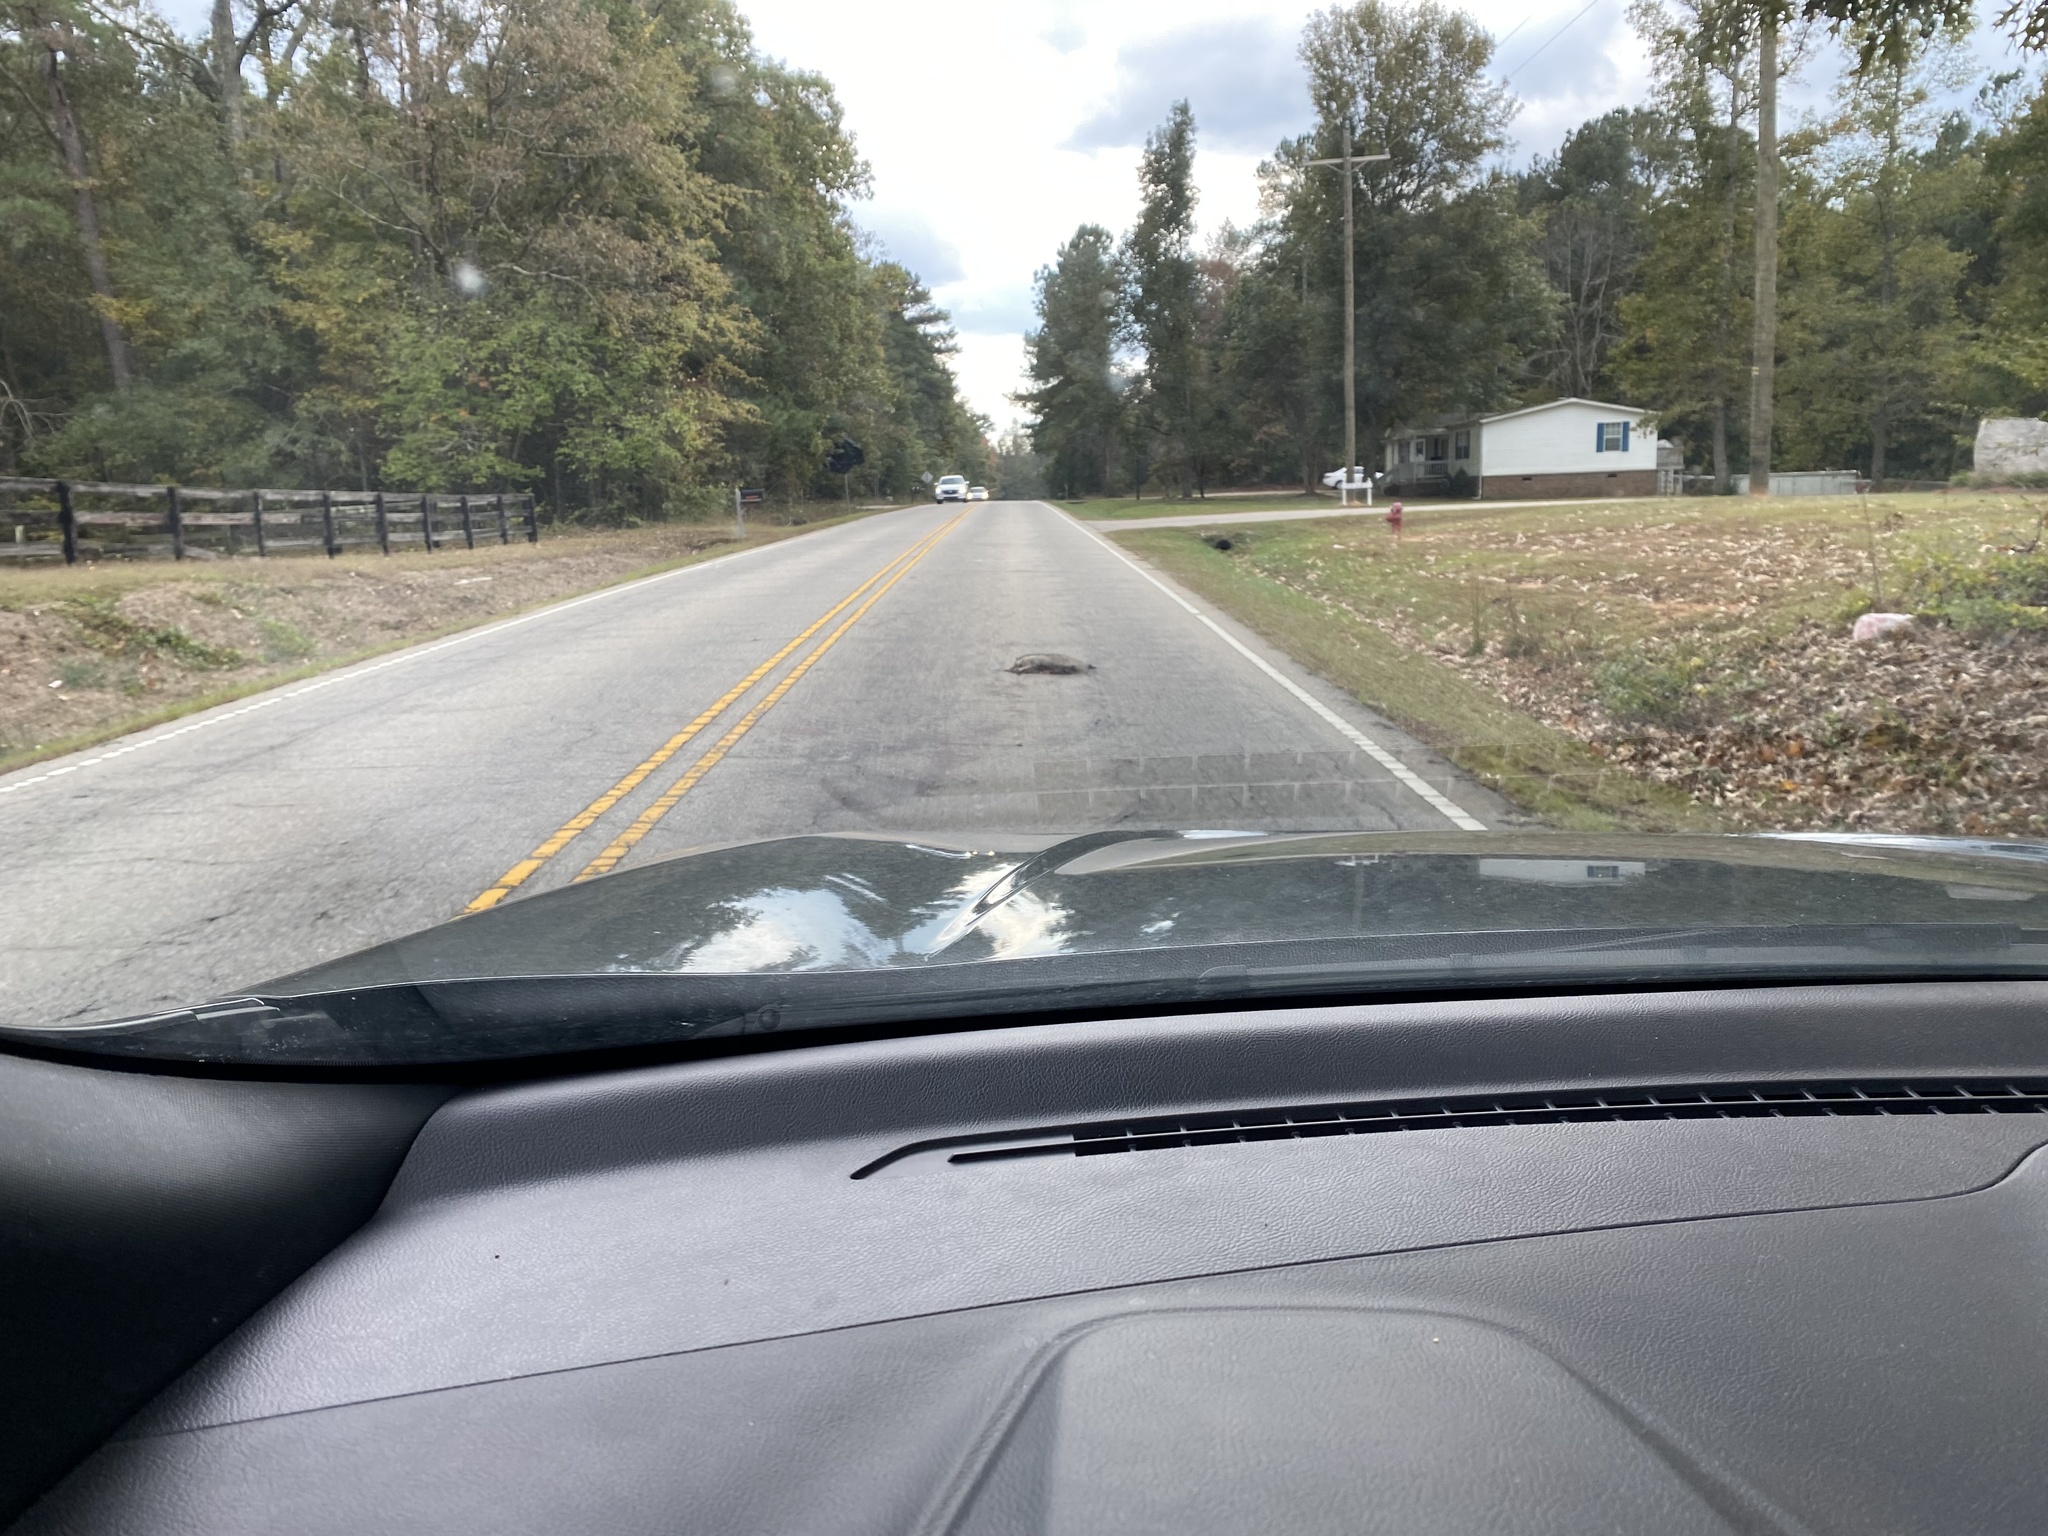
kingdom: Animalia
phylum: Chordata
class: Mammalia
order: Carnivora
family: Procyonidae
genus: Procyon
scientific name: Procyon lotor
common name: Raccoon
